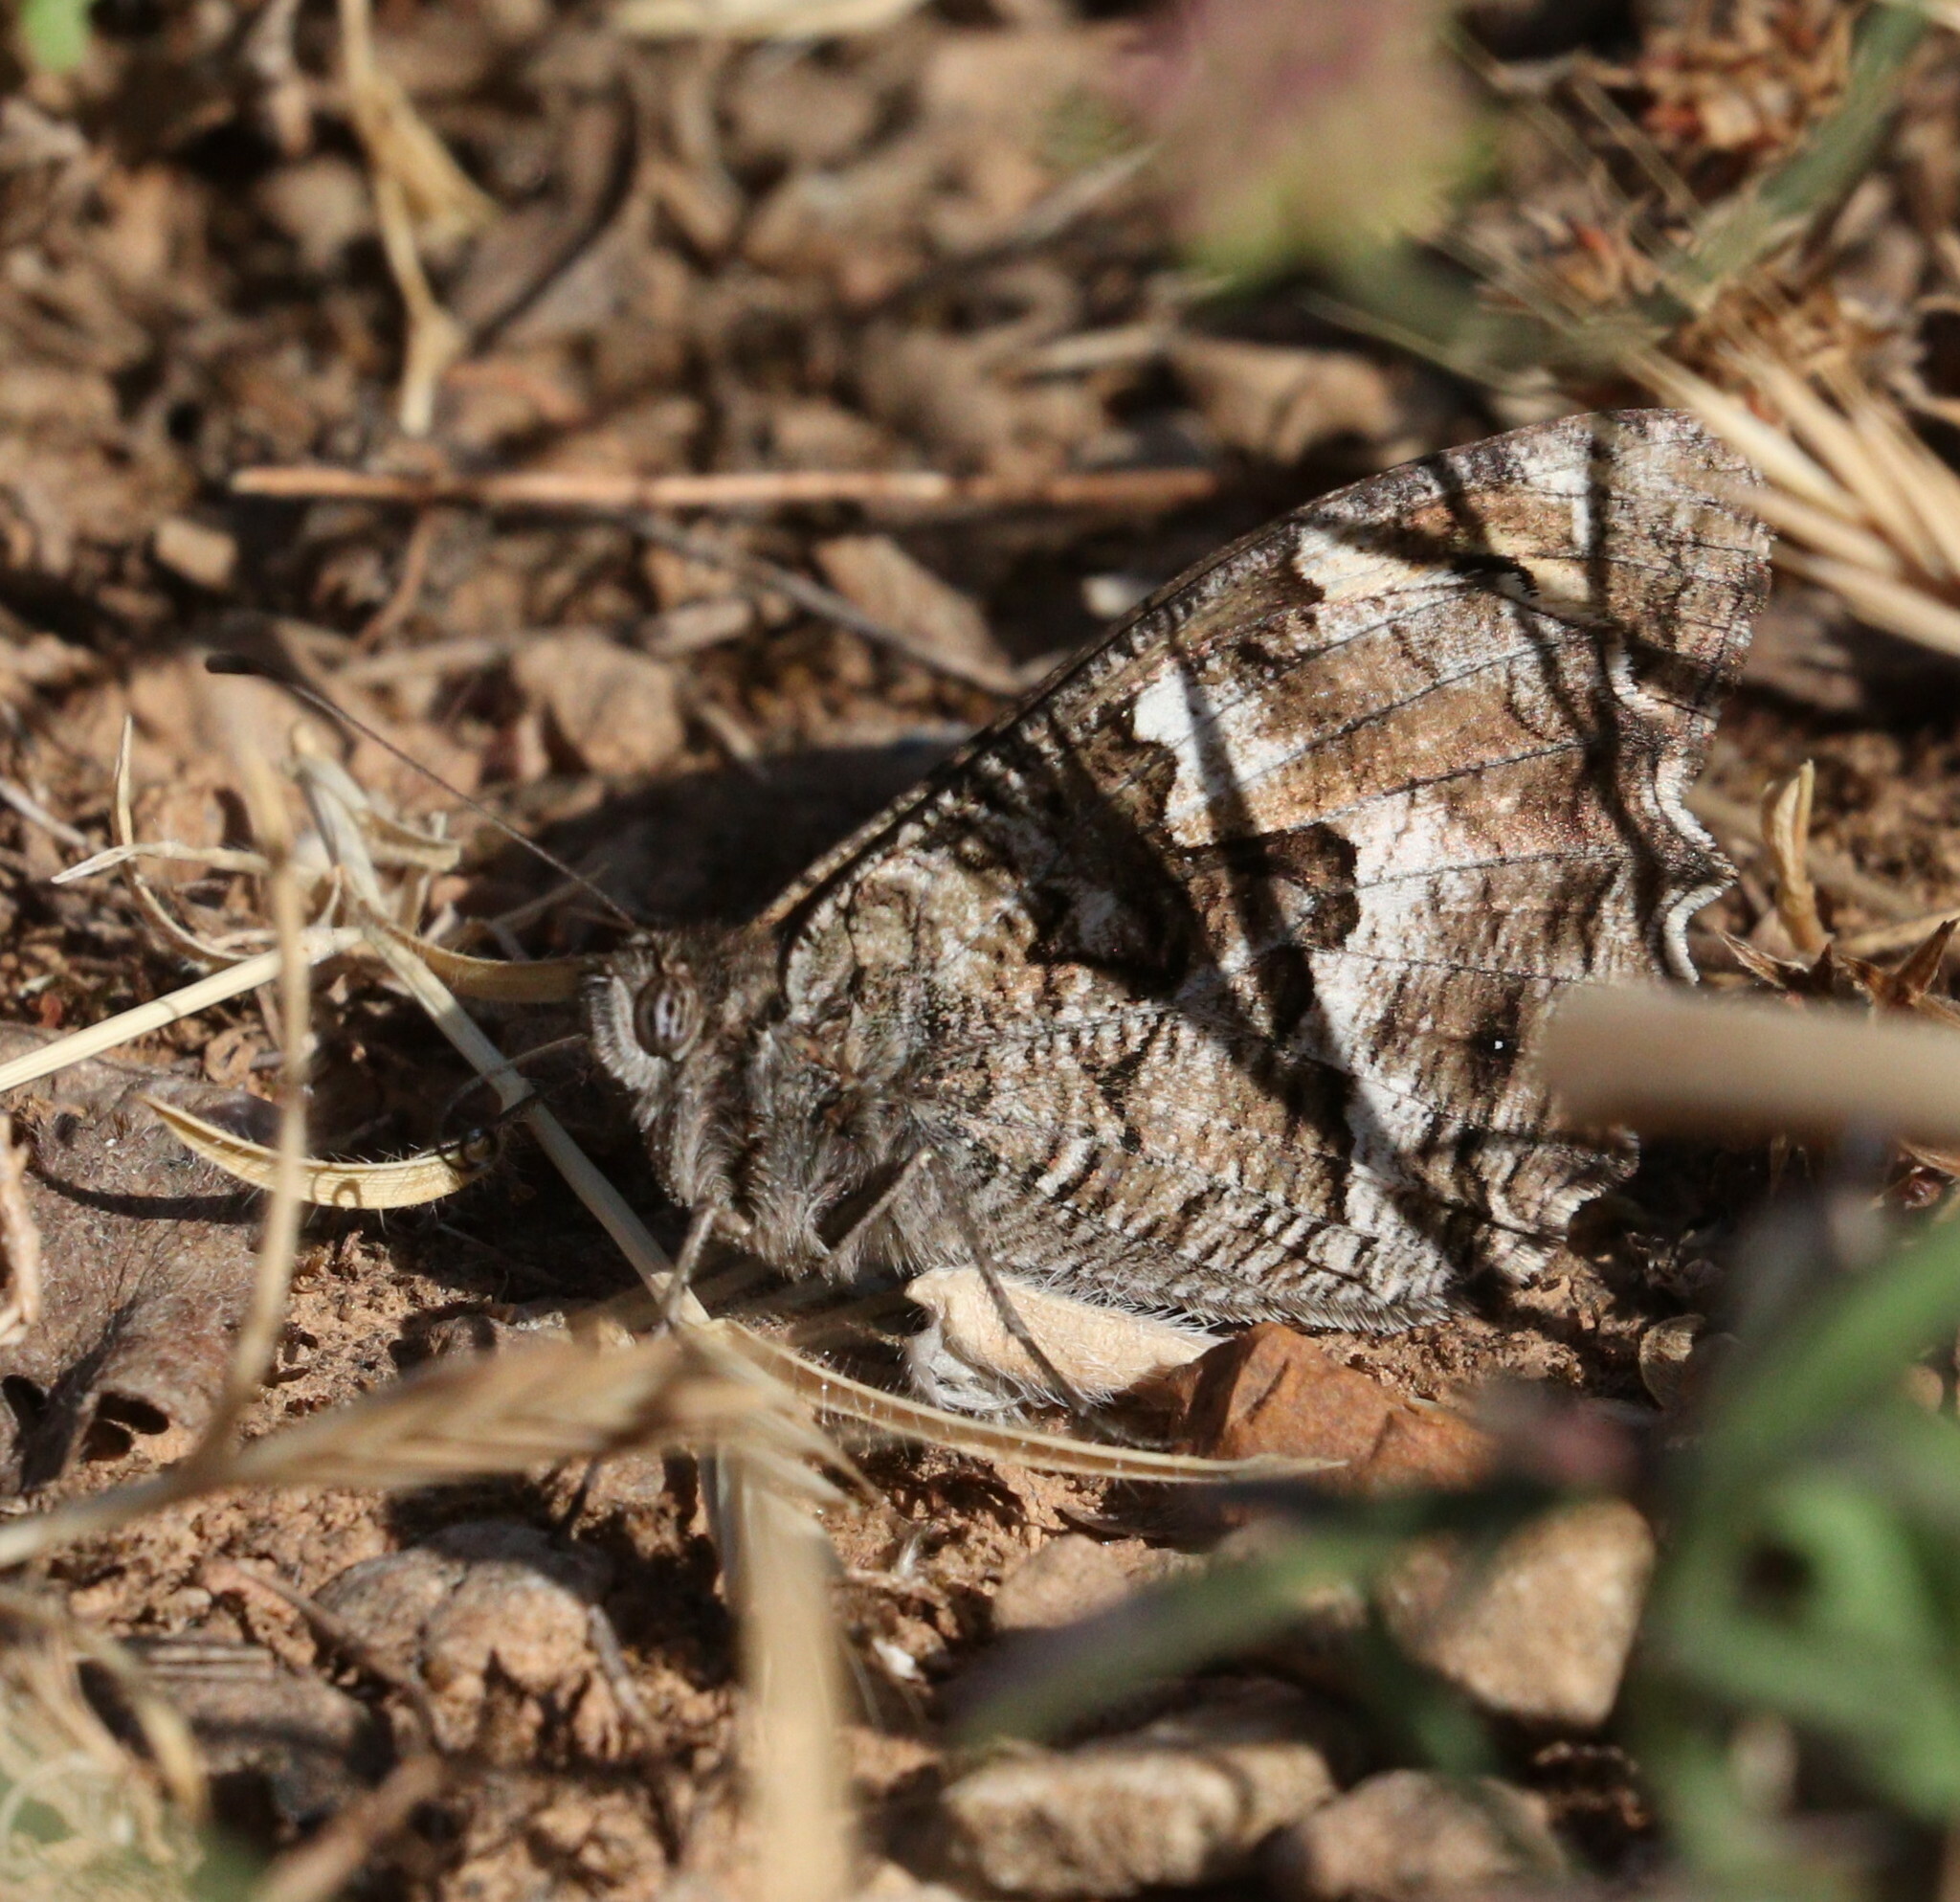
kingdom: Animalia
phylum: Arthropoda
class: Insecta
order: Lepidoptera
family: Nymphalidae
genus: Hipparchia
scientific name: Hipparchia semele
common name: Grayling
